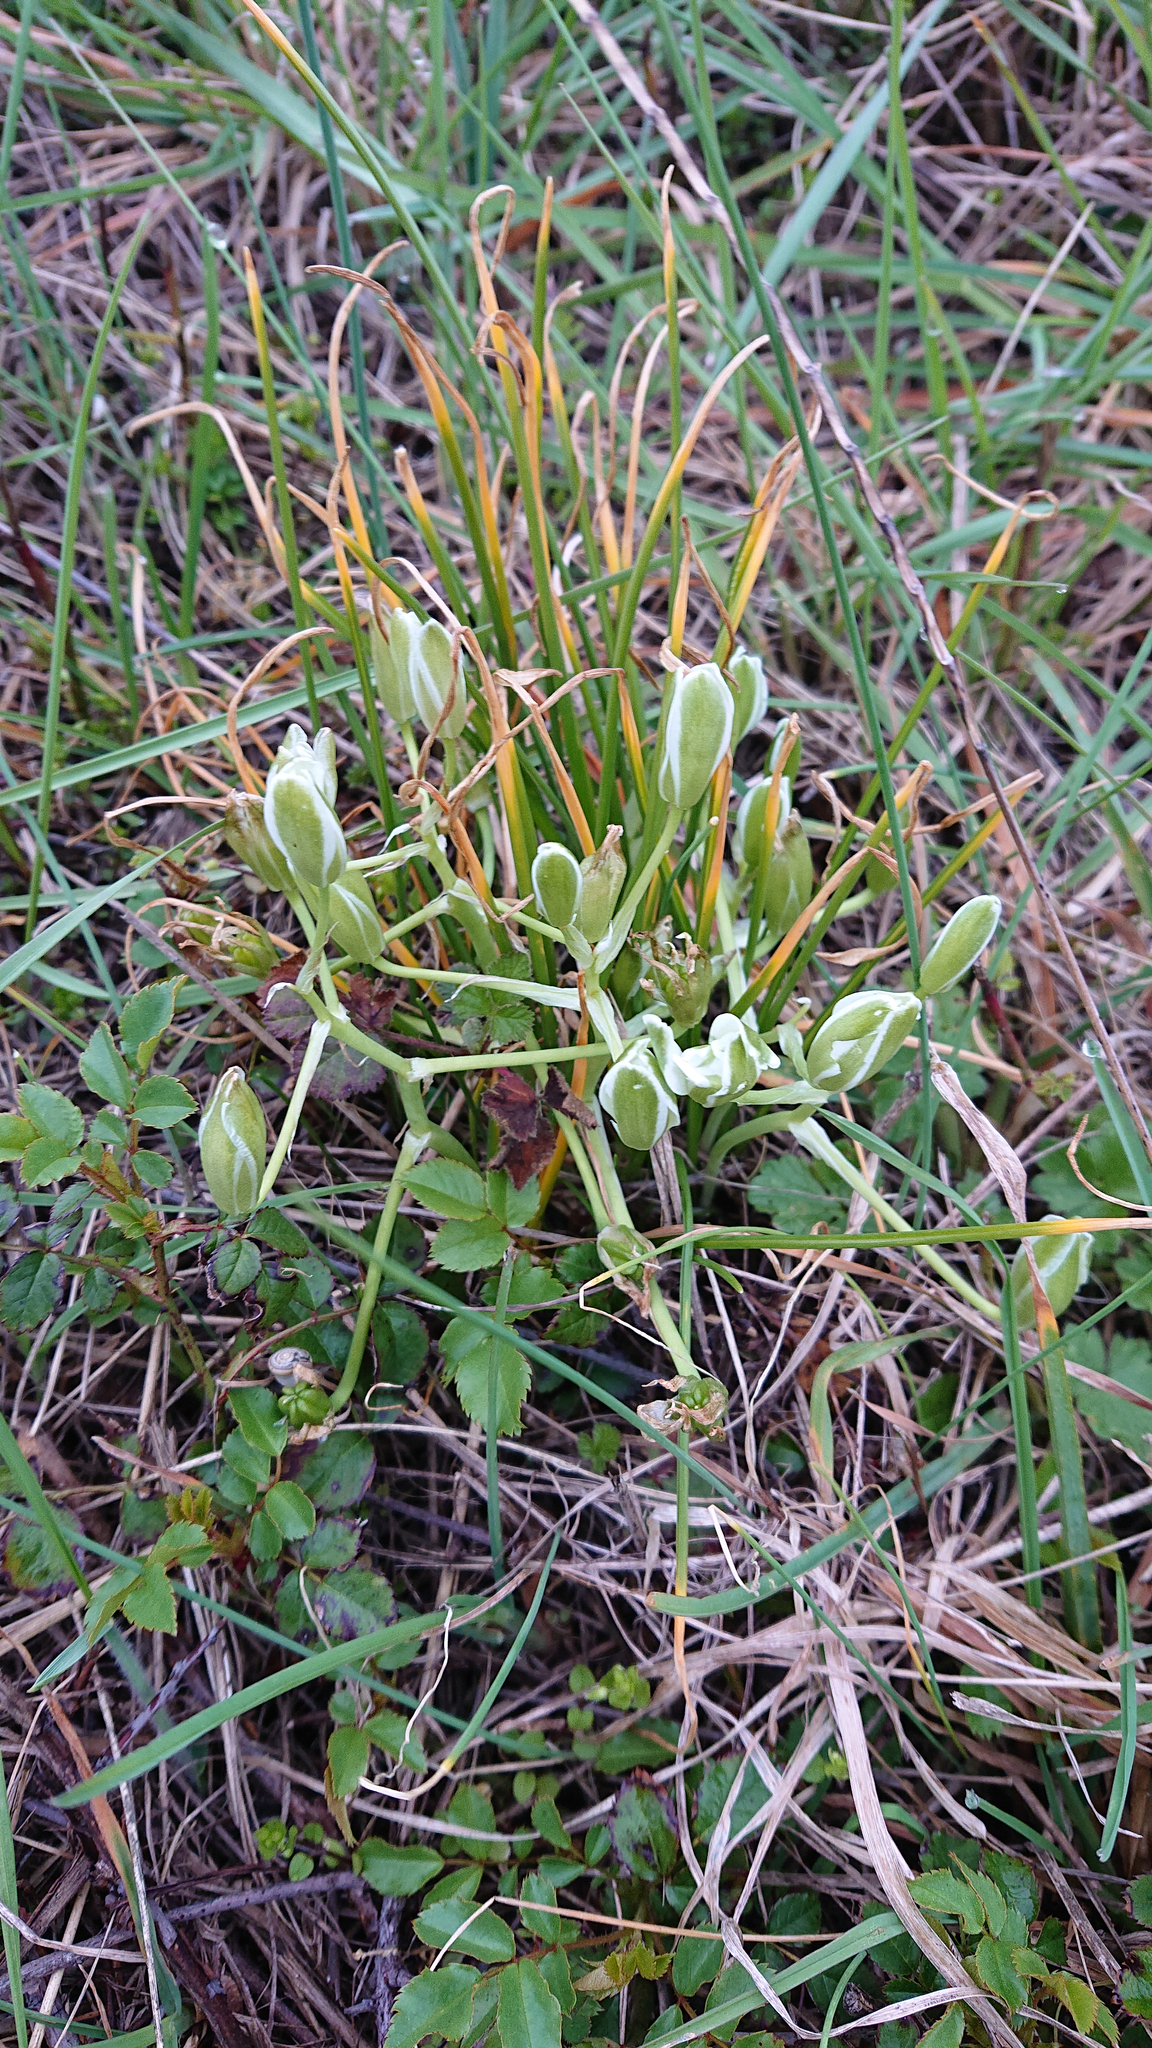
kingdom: Plantae
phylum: Tracheophyta
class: Liliopsida
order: Asparagales
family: Asparagaceae
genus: Ornithogalum
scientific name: Ornithogalum refractum
